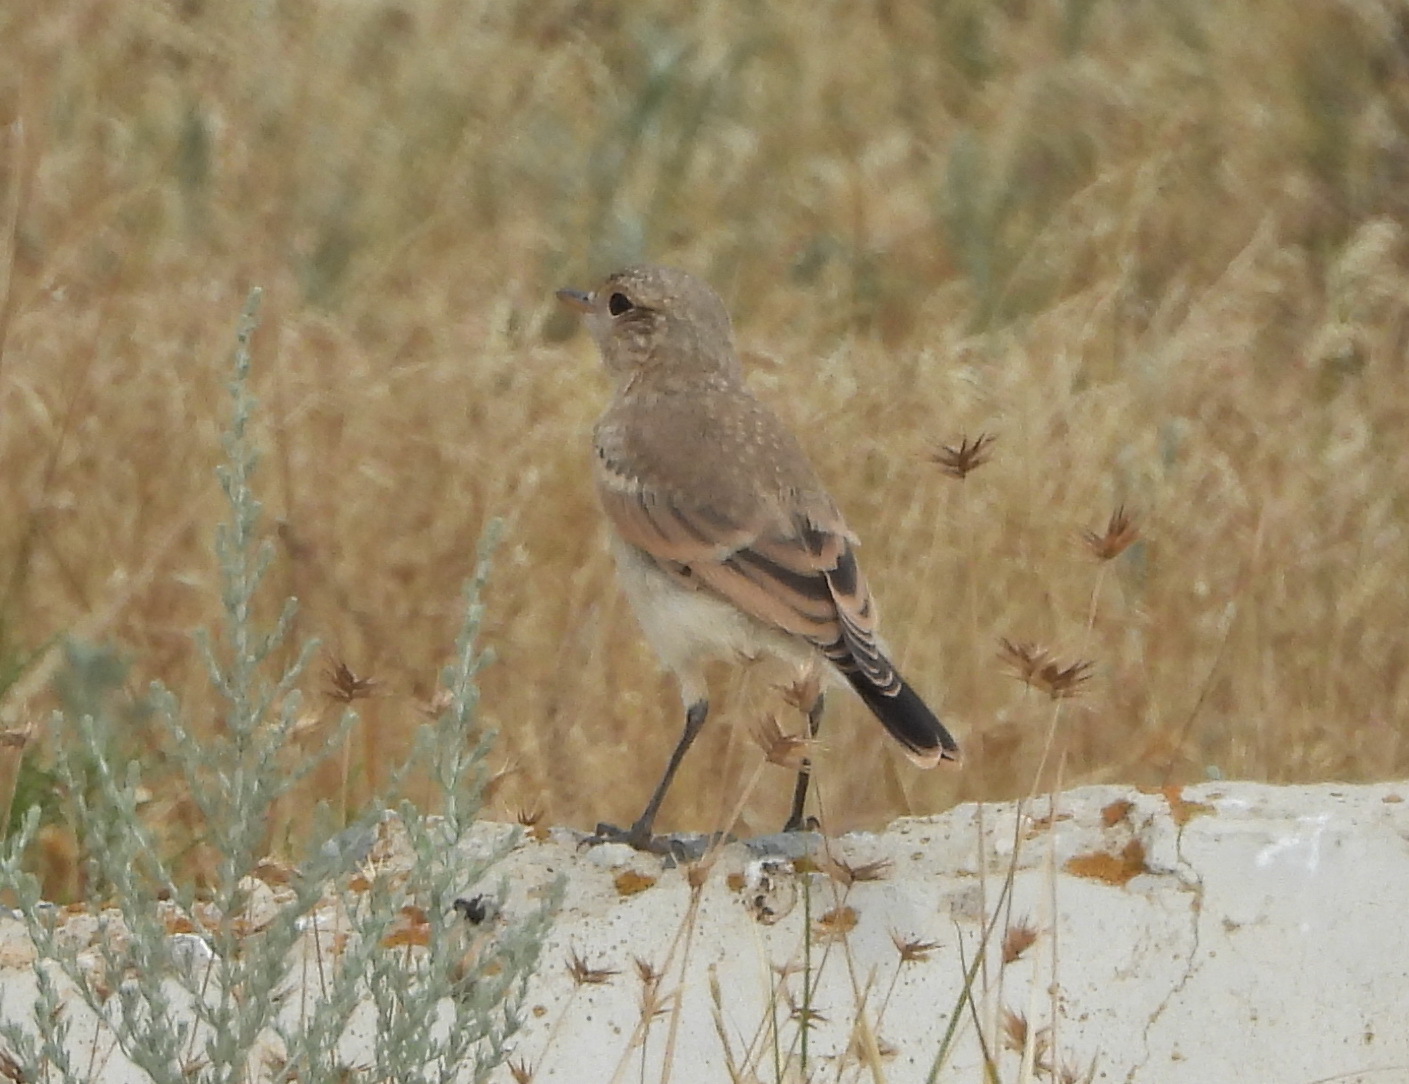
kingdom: Animalia
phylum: Chordata
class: Aves
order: Passeriformes
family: Muscicapidae
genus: Oenanthe
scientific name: Oenanthe isabellina
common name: Isabelline wheatear
